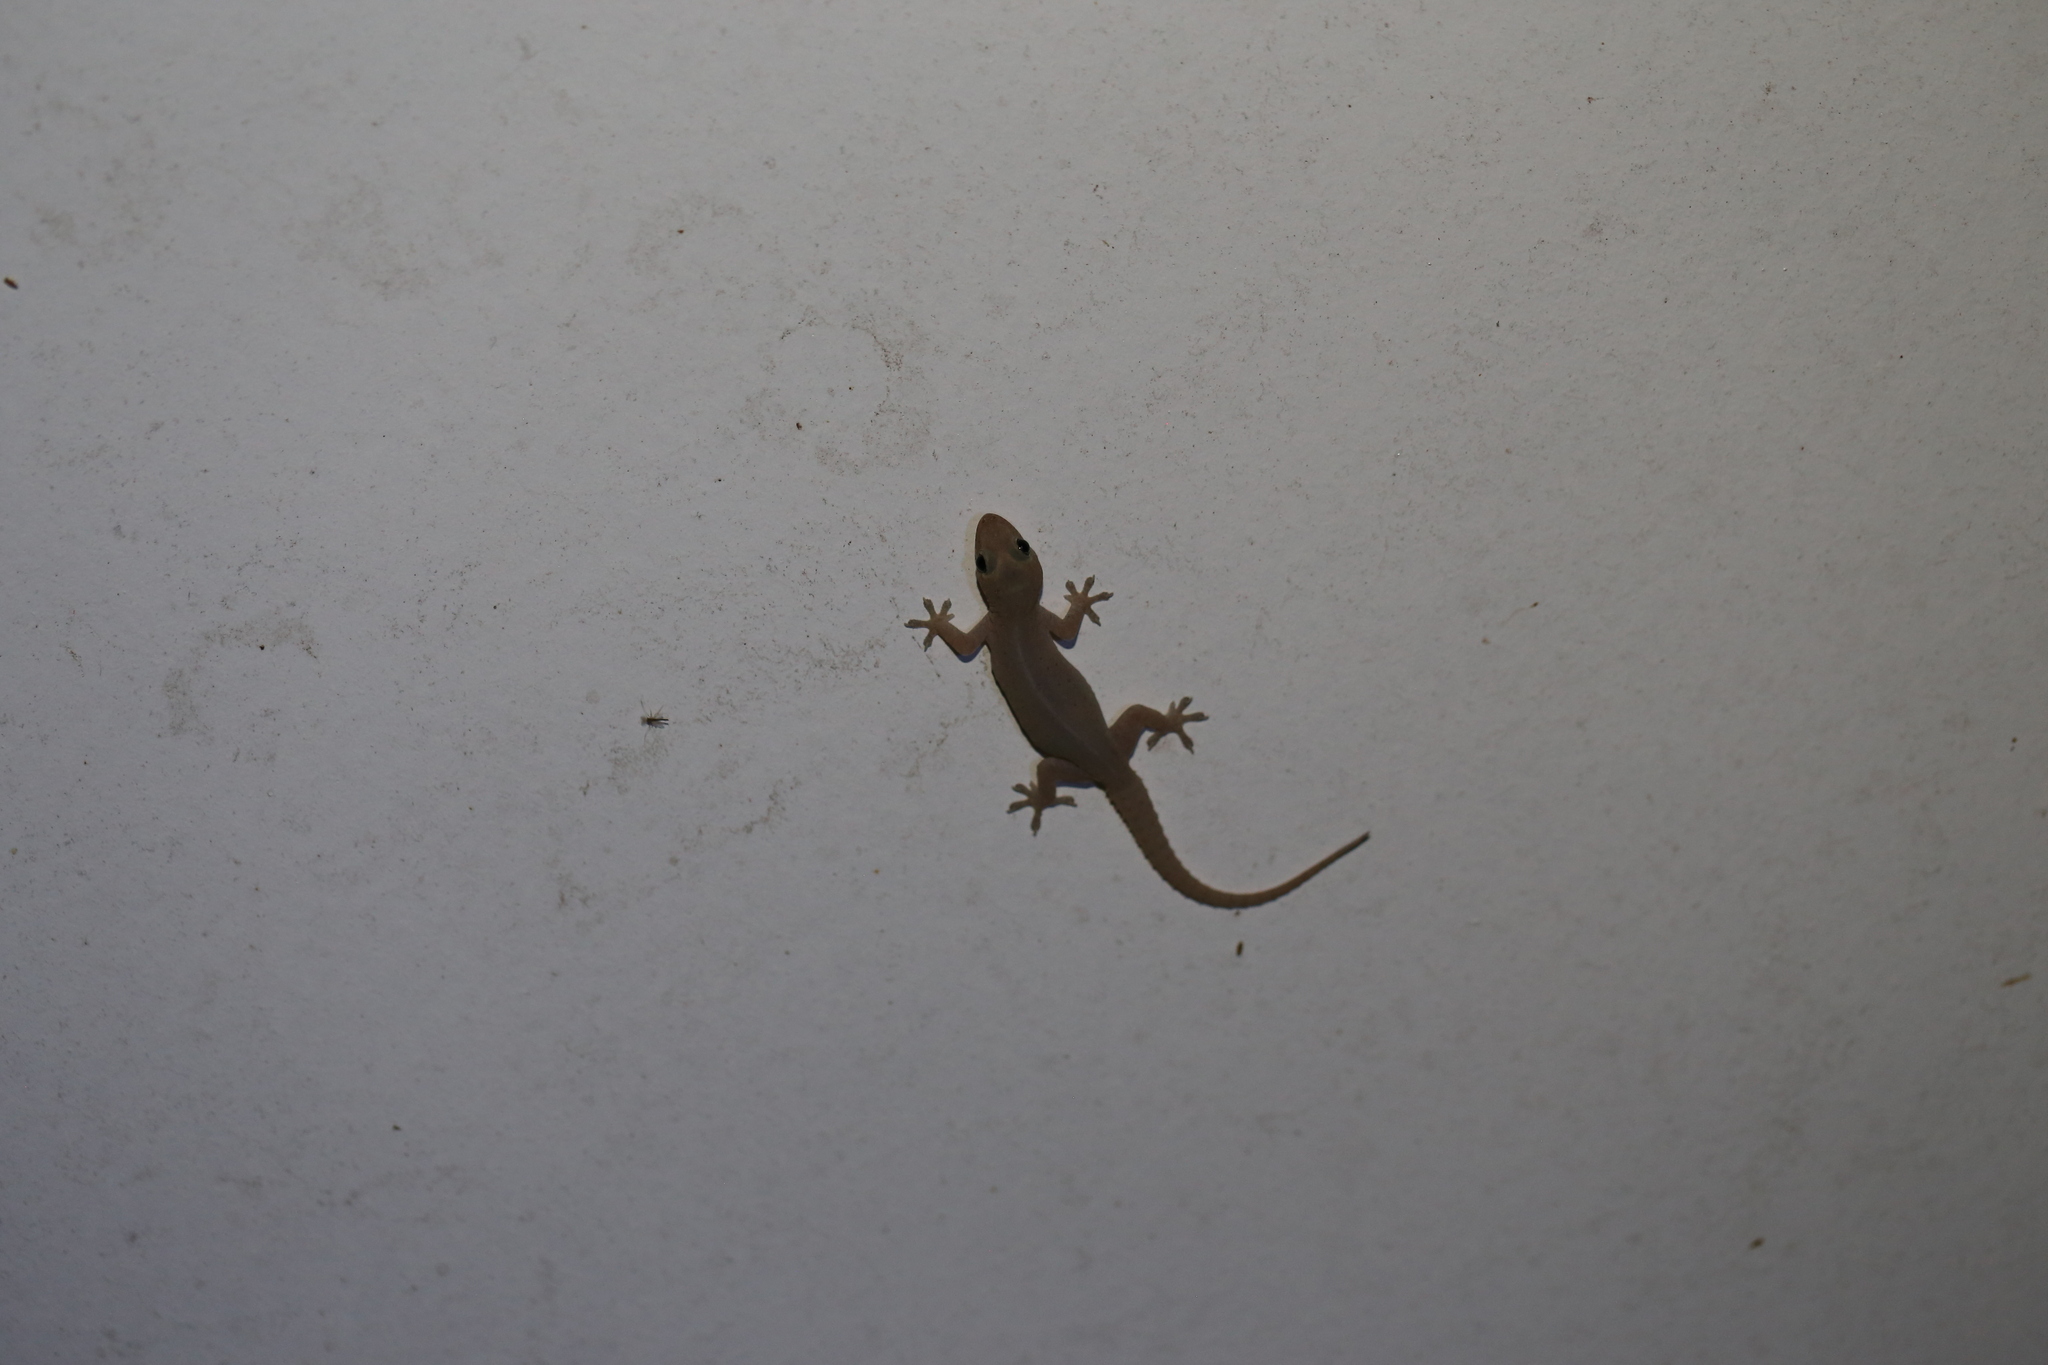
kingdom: Animalia
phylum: Chordata
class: Squamata
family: Gekkonidae
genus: Hemidactylus
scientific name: Hemidactylus frenatus
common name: Common house gecko
